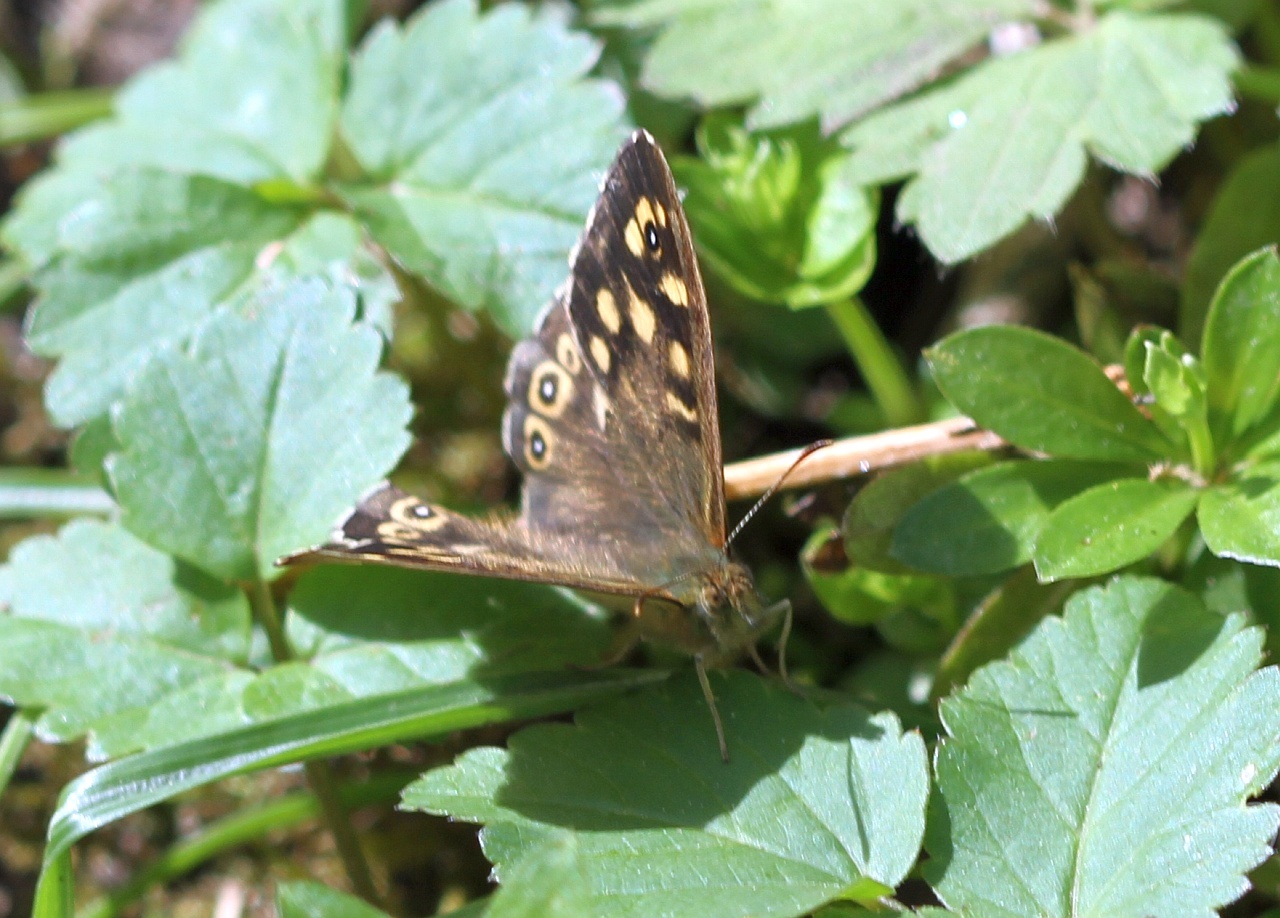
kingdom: Animalia
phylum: Arthropoda
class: Insecta
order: Lepidoptera
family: Nymphalidae
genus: Pararge
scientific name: Pararge aegeria
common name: Speckled wood
